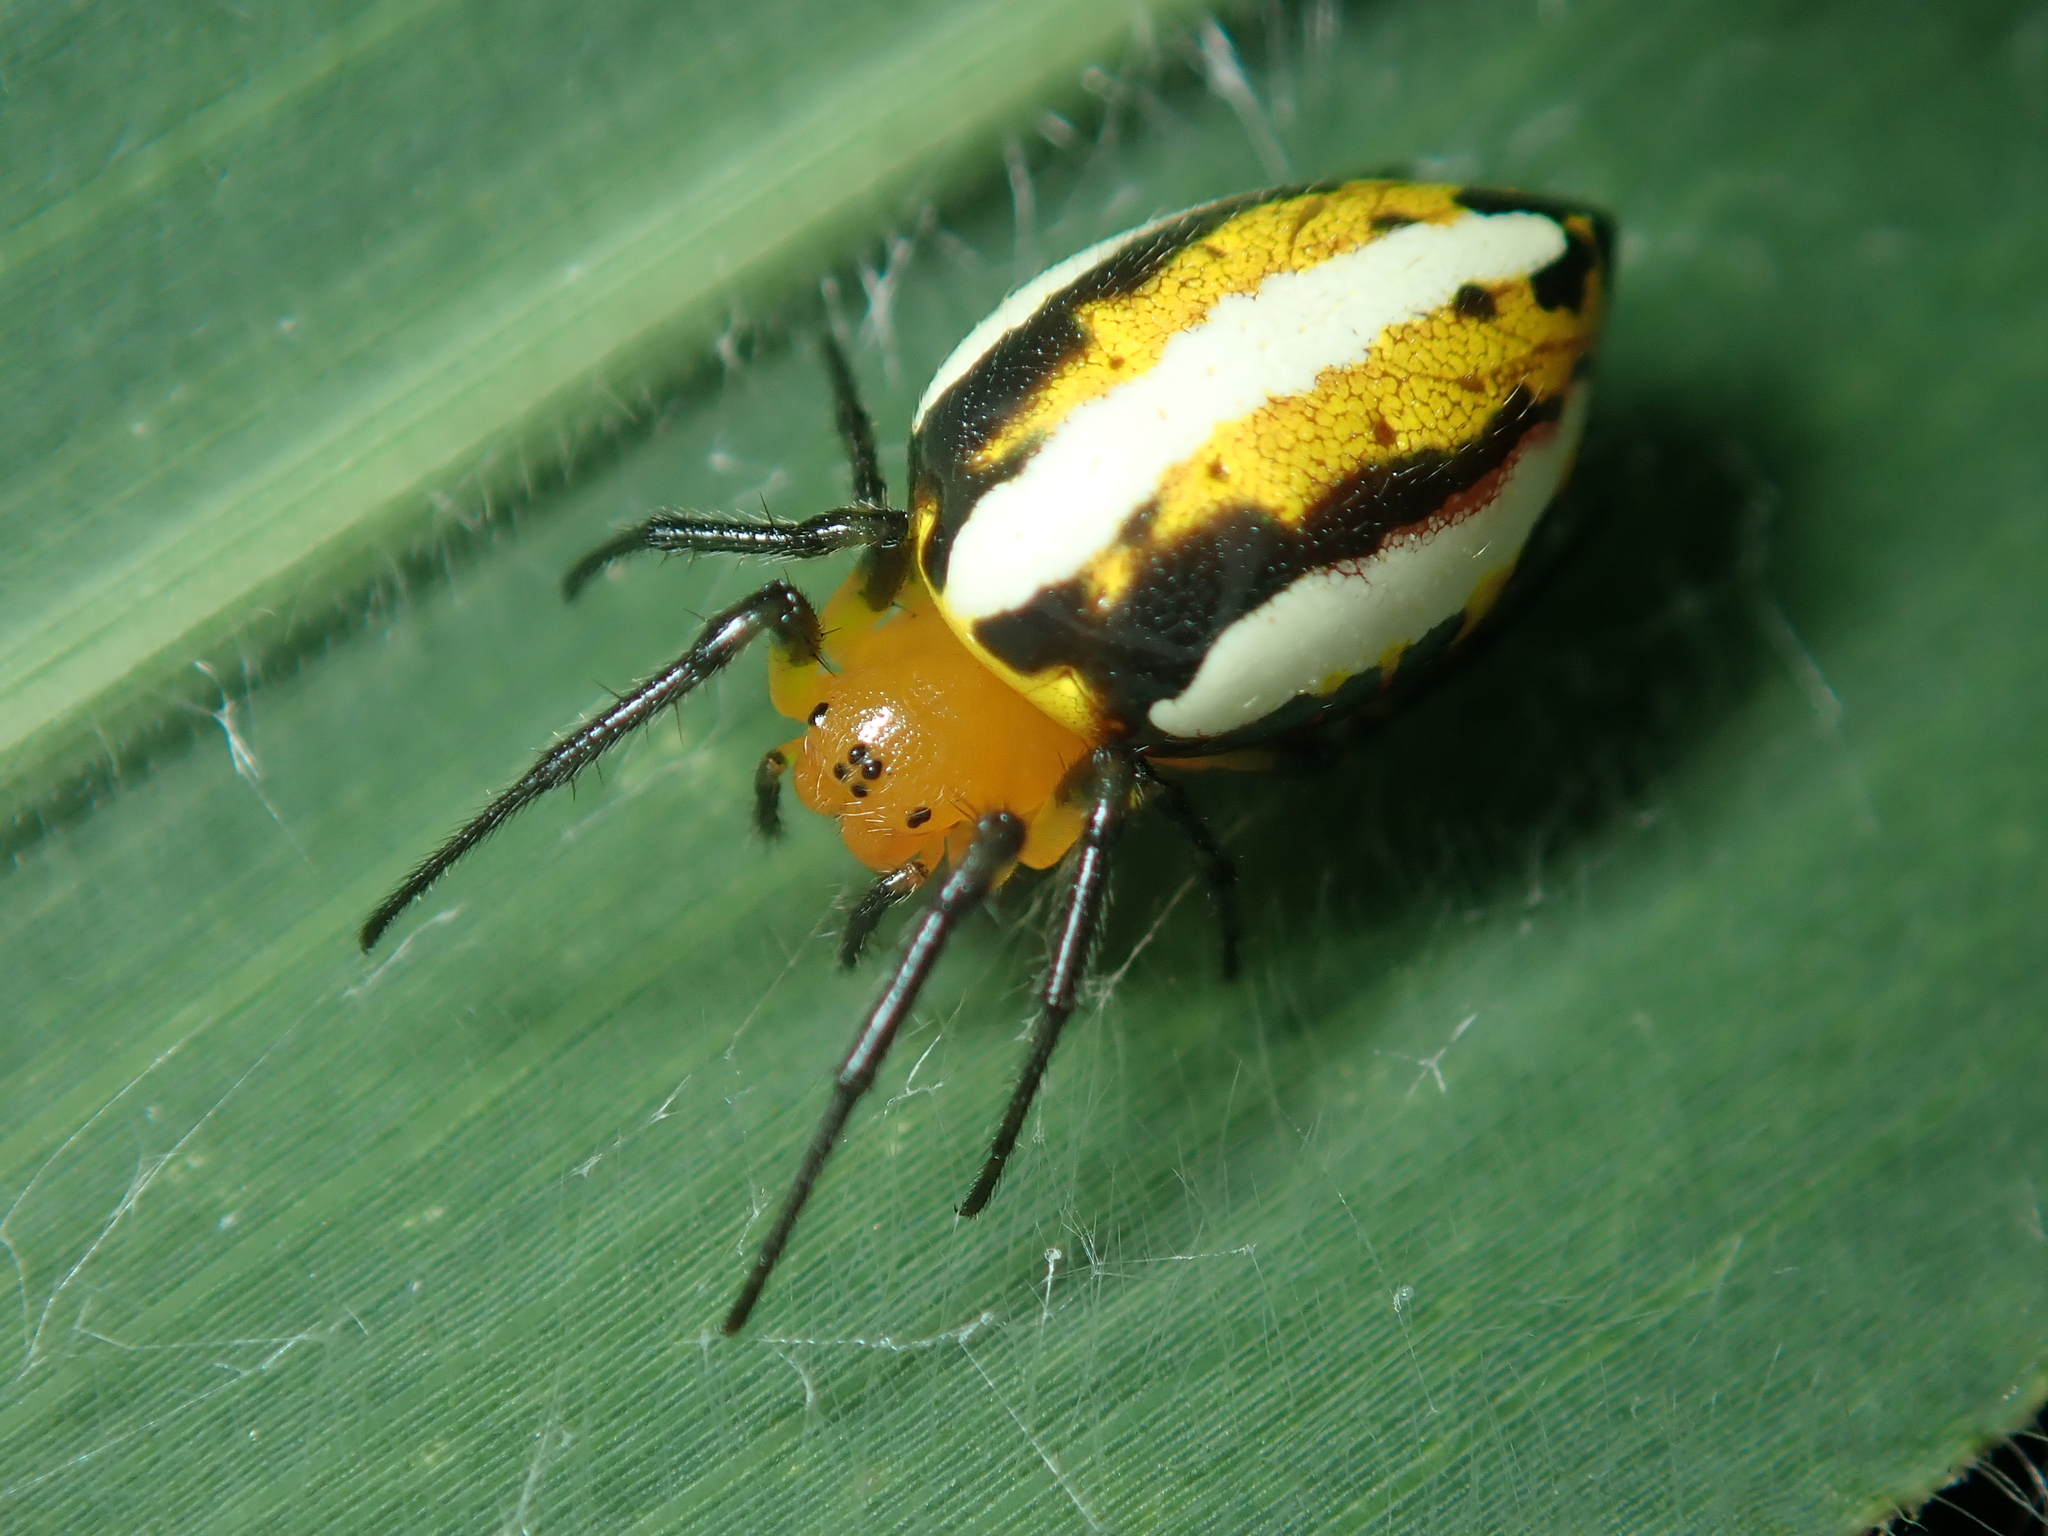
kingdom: Animalia
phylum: Arthropoda
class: Arachnida
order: Araneae
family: Araneidae
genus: Alpaida
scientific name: Alpaida rubellula
